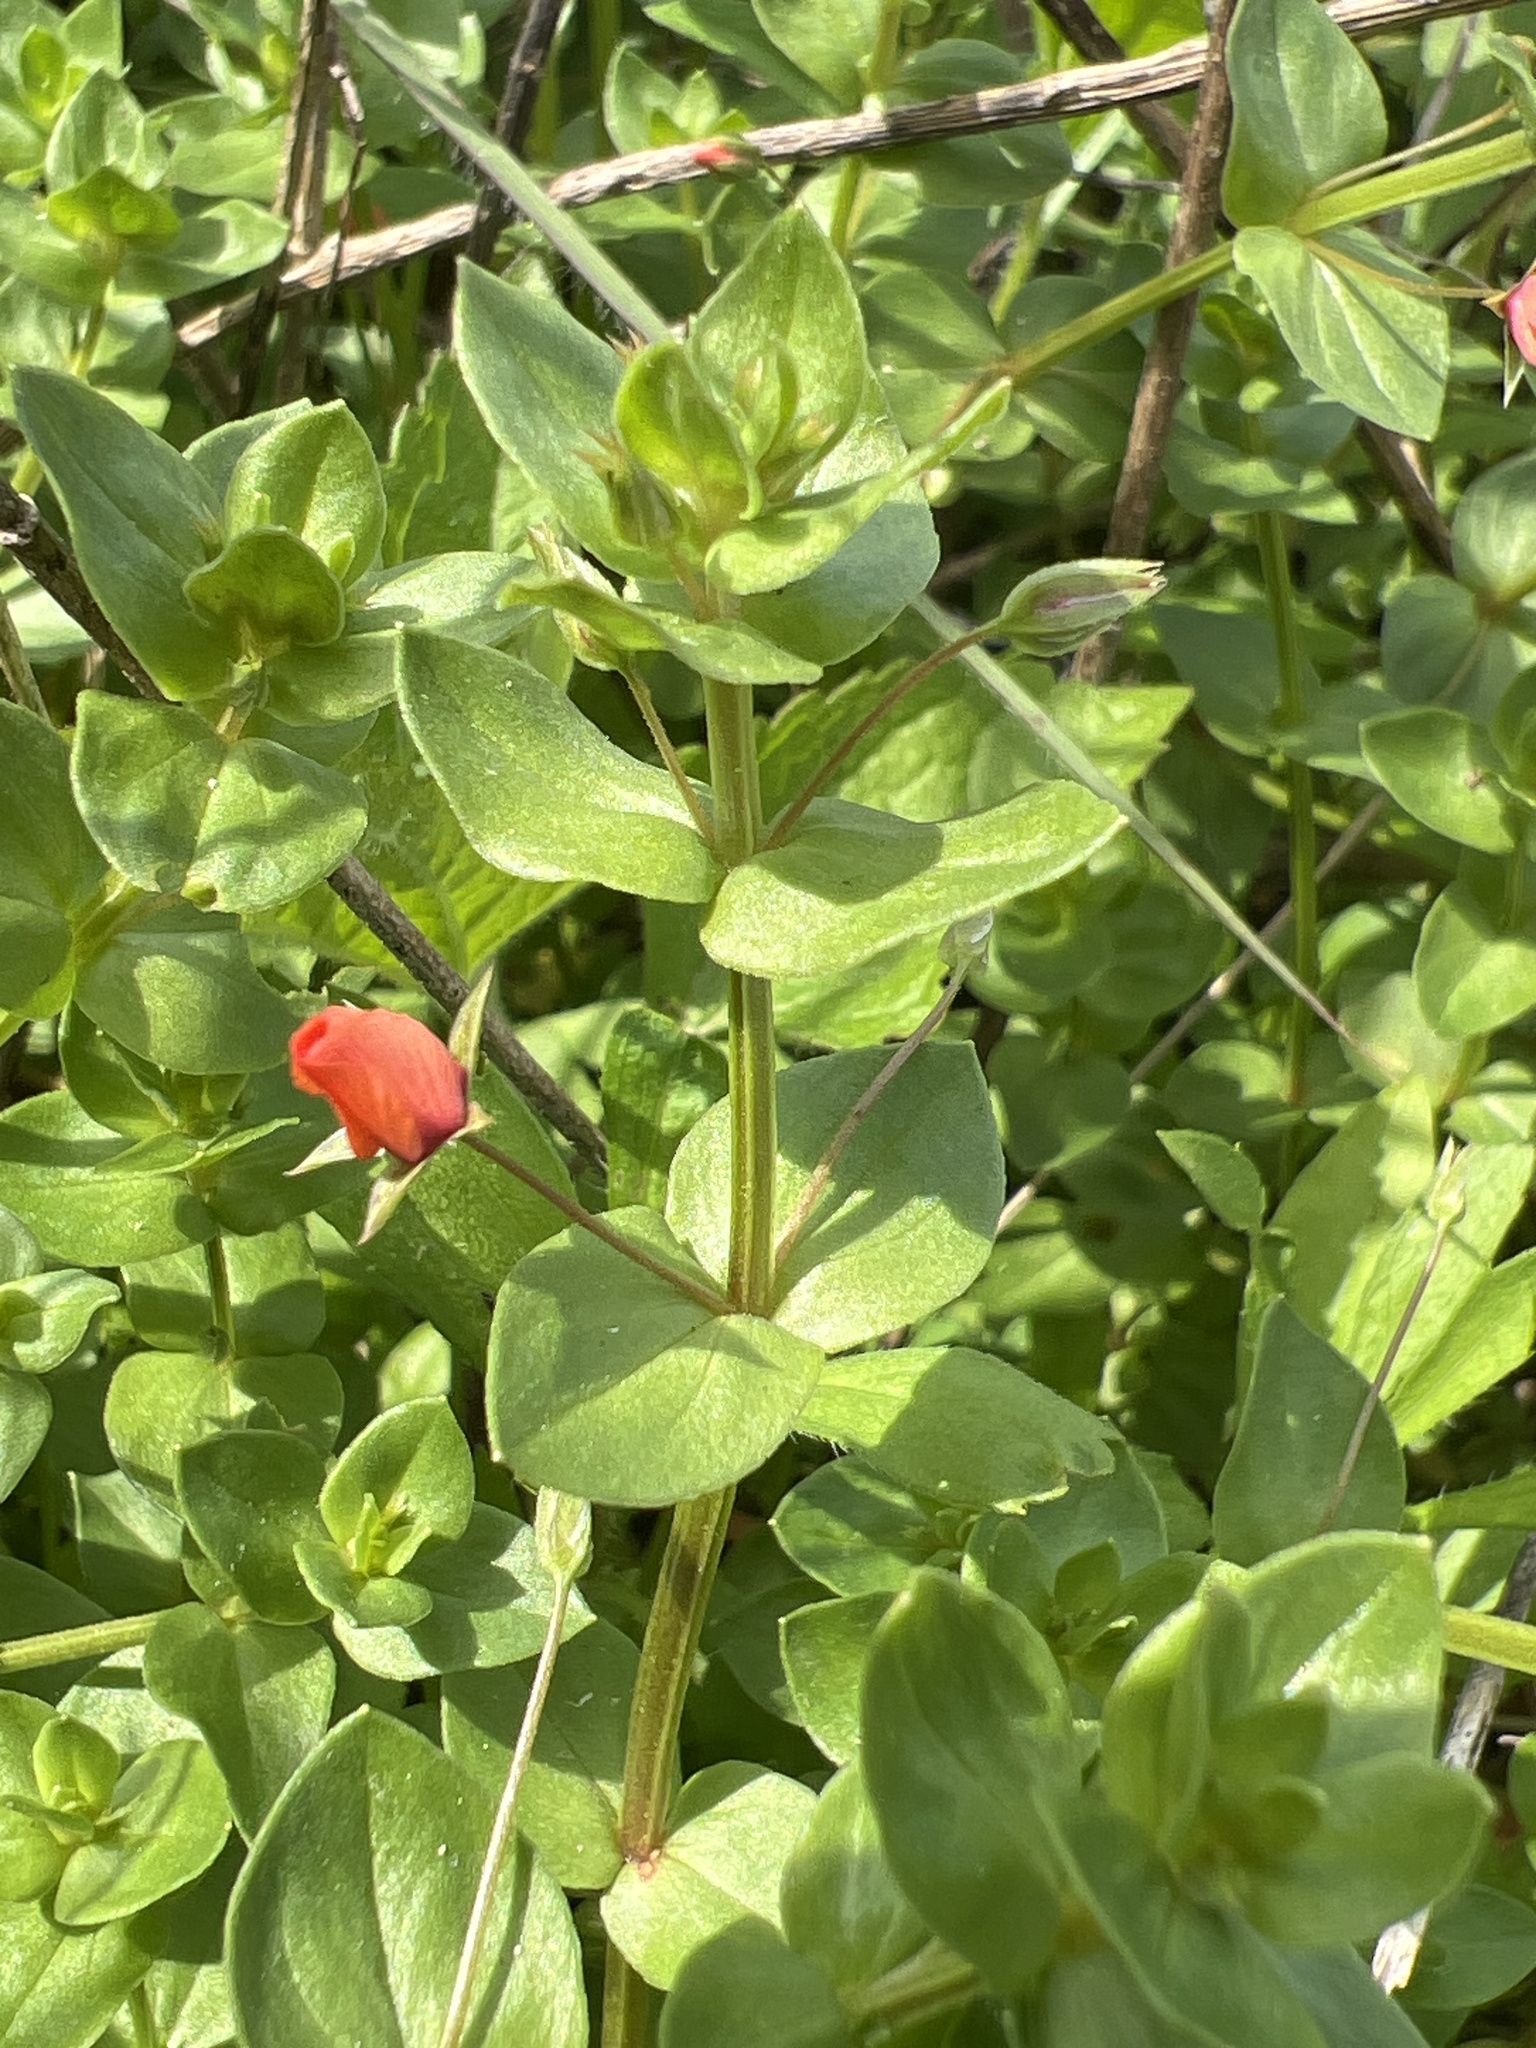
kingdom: Plantae
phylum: Tracheophyta
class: Magnoliopsida
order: Ericales
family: Primulaceae
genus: Lysimachia
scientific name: Lysimachia arvensis
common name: Scarlet pimpernel
